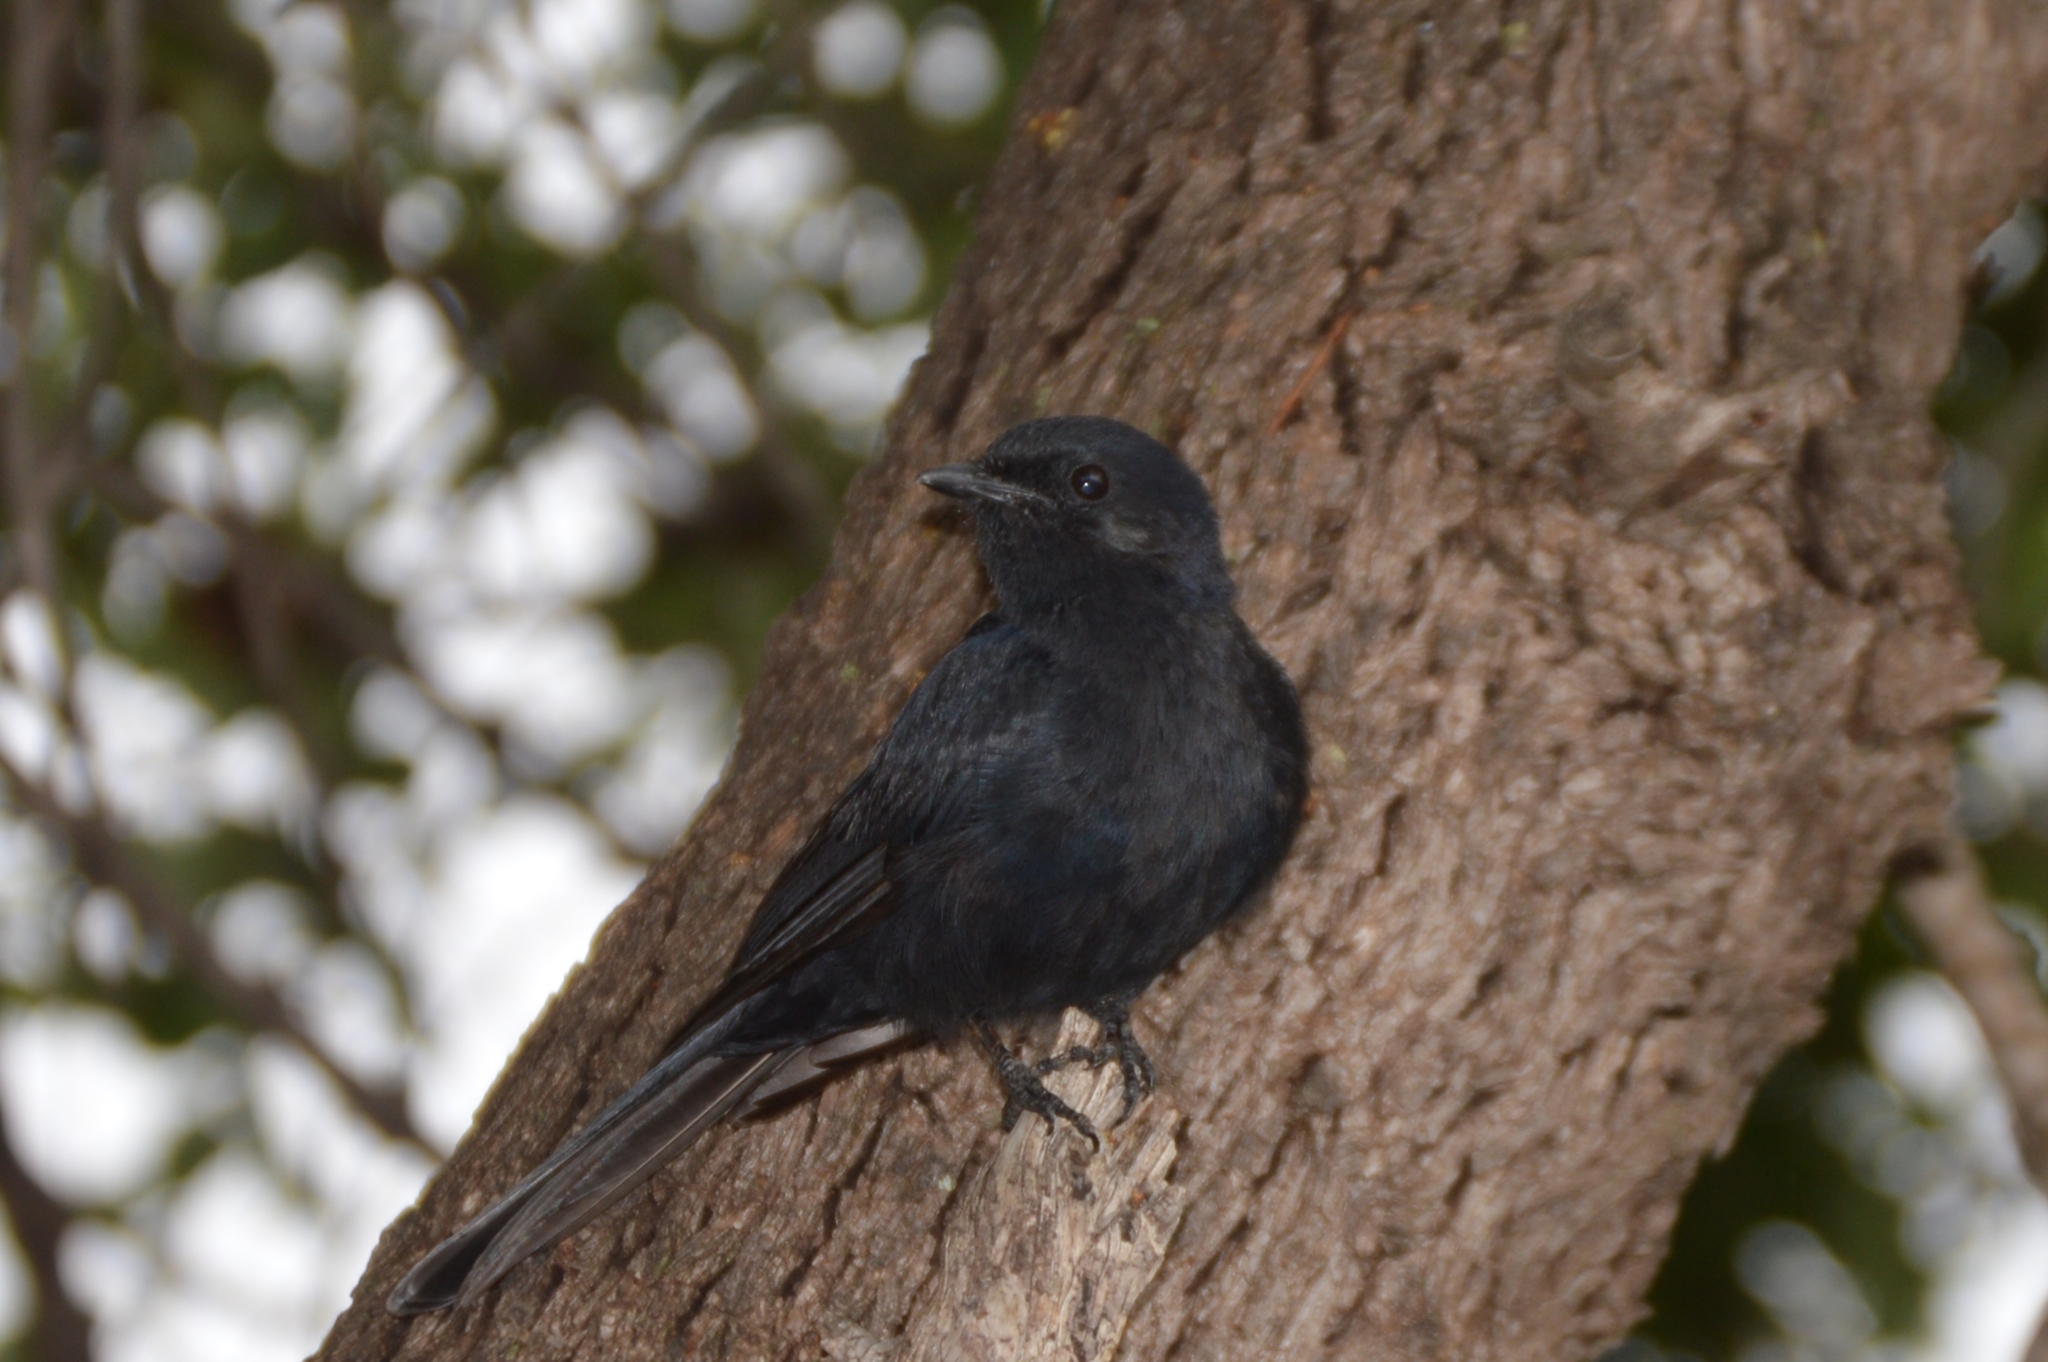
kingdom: Animalia
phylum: Chordata
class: Aves
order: Passeriformes
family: Muscicapidae
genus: Melaenornis
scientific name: Melaenornis pammelaina
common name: Southern black flycatcher
